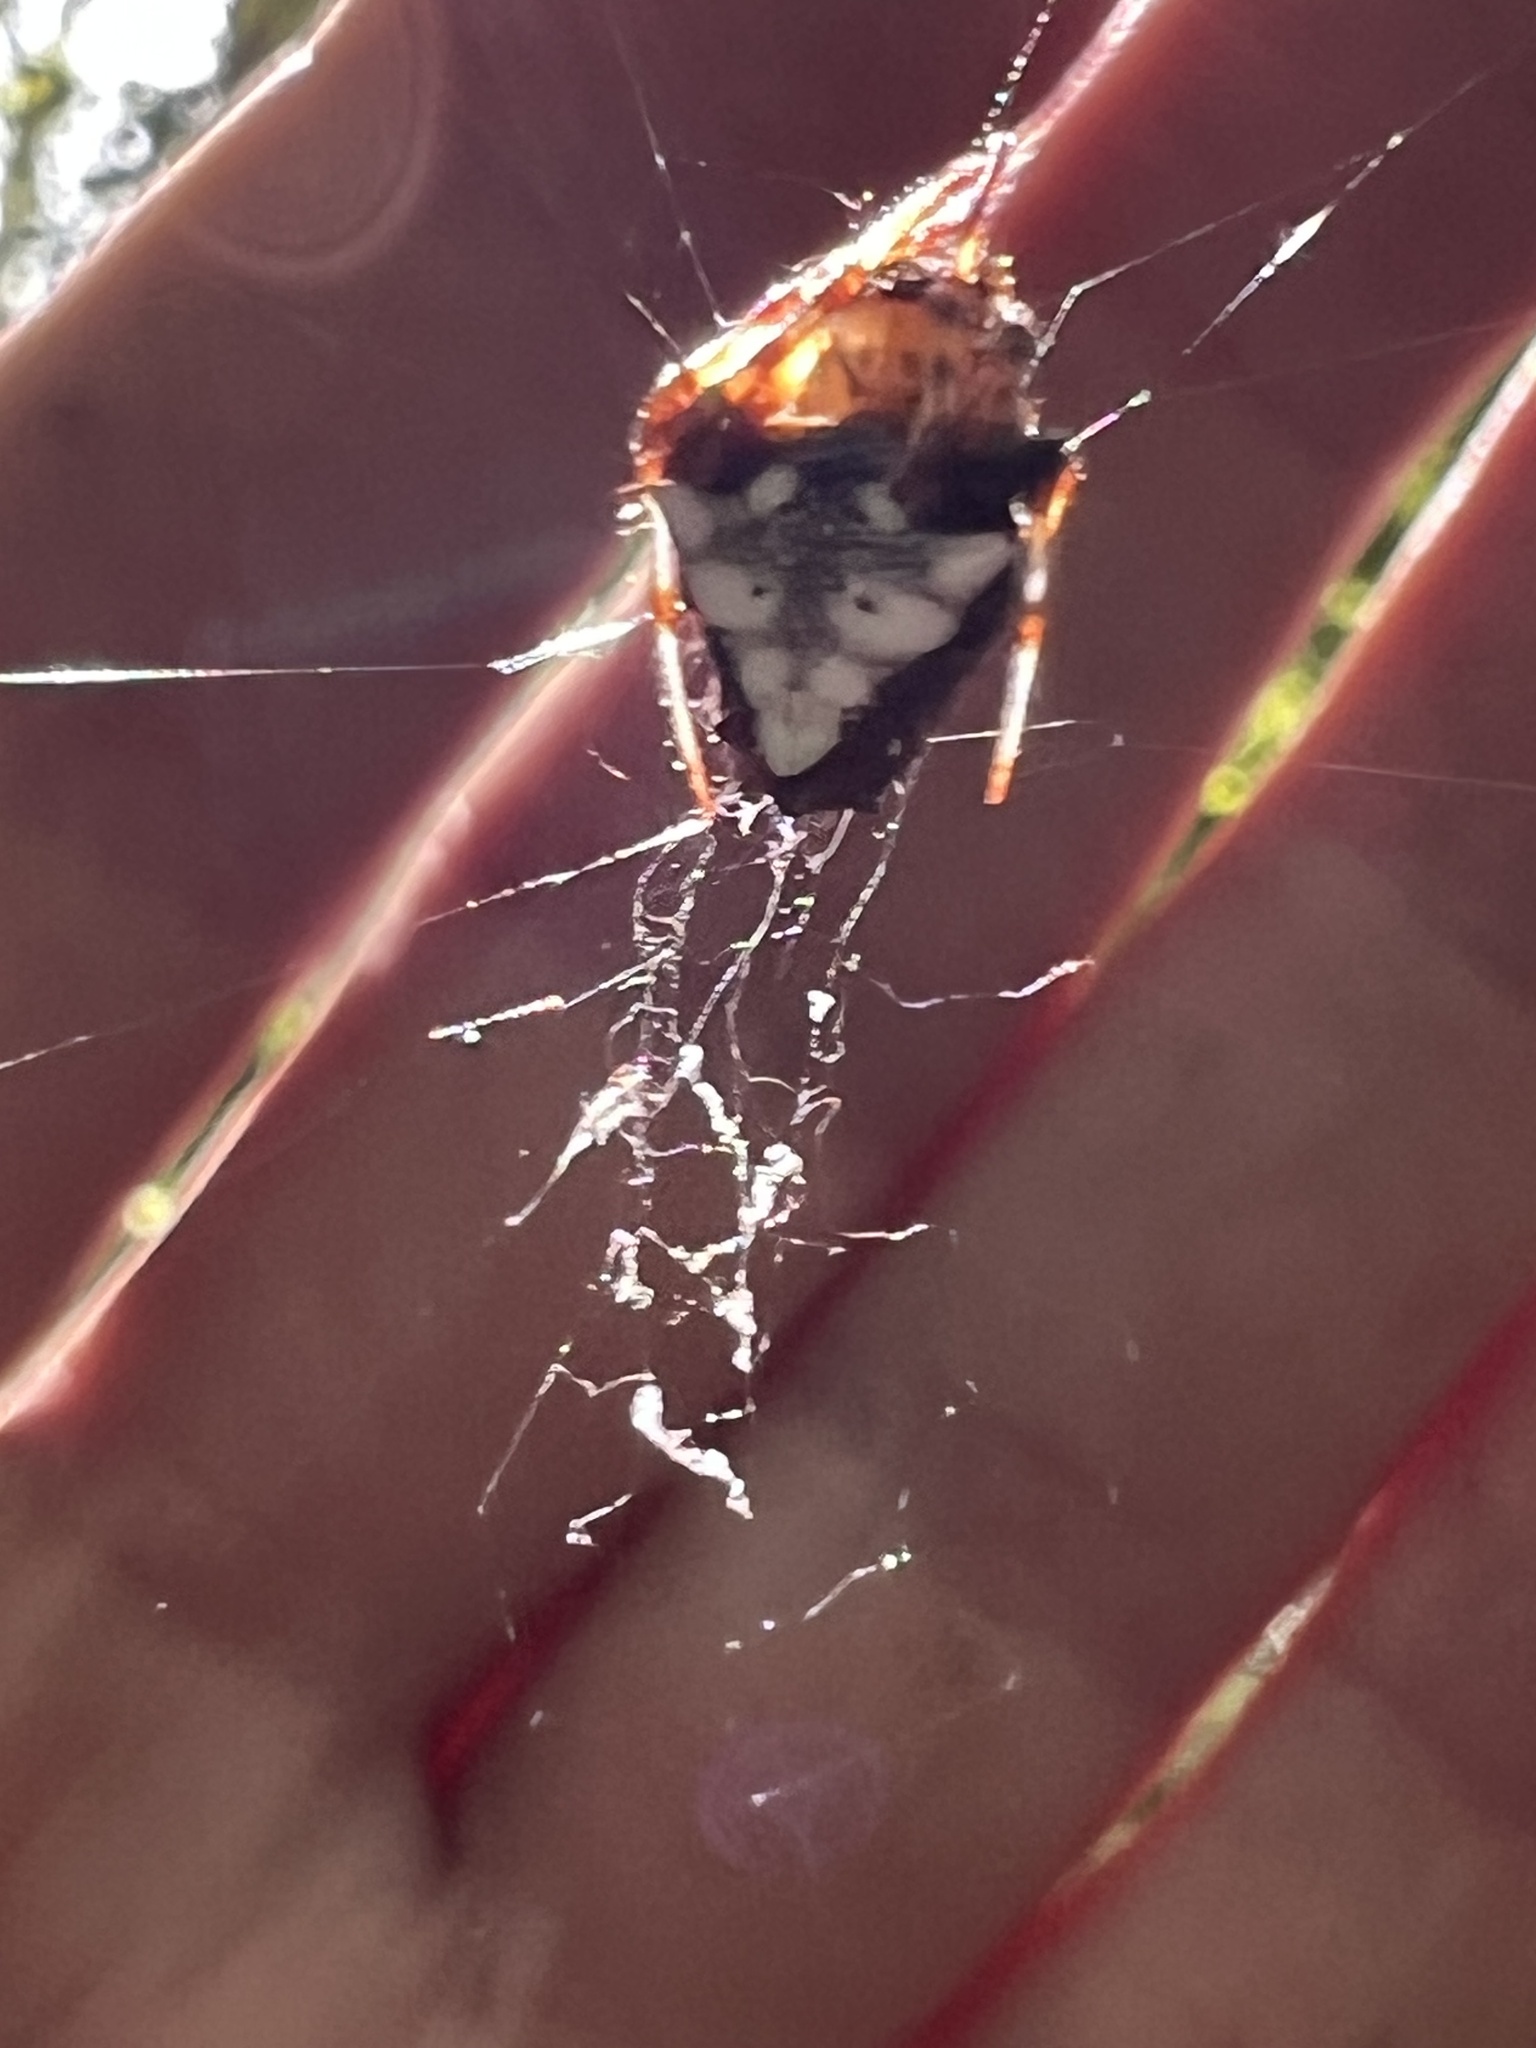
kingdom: Animalia
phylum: Arthropoda
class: Arachnida
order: Araneae
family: Araneidae
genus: Verrucosa
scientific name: Verrucosa arenata
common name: Orb weavers
